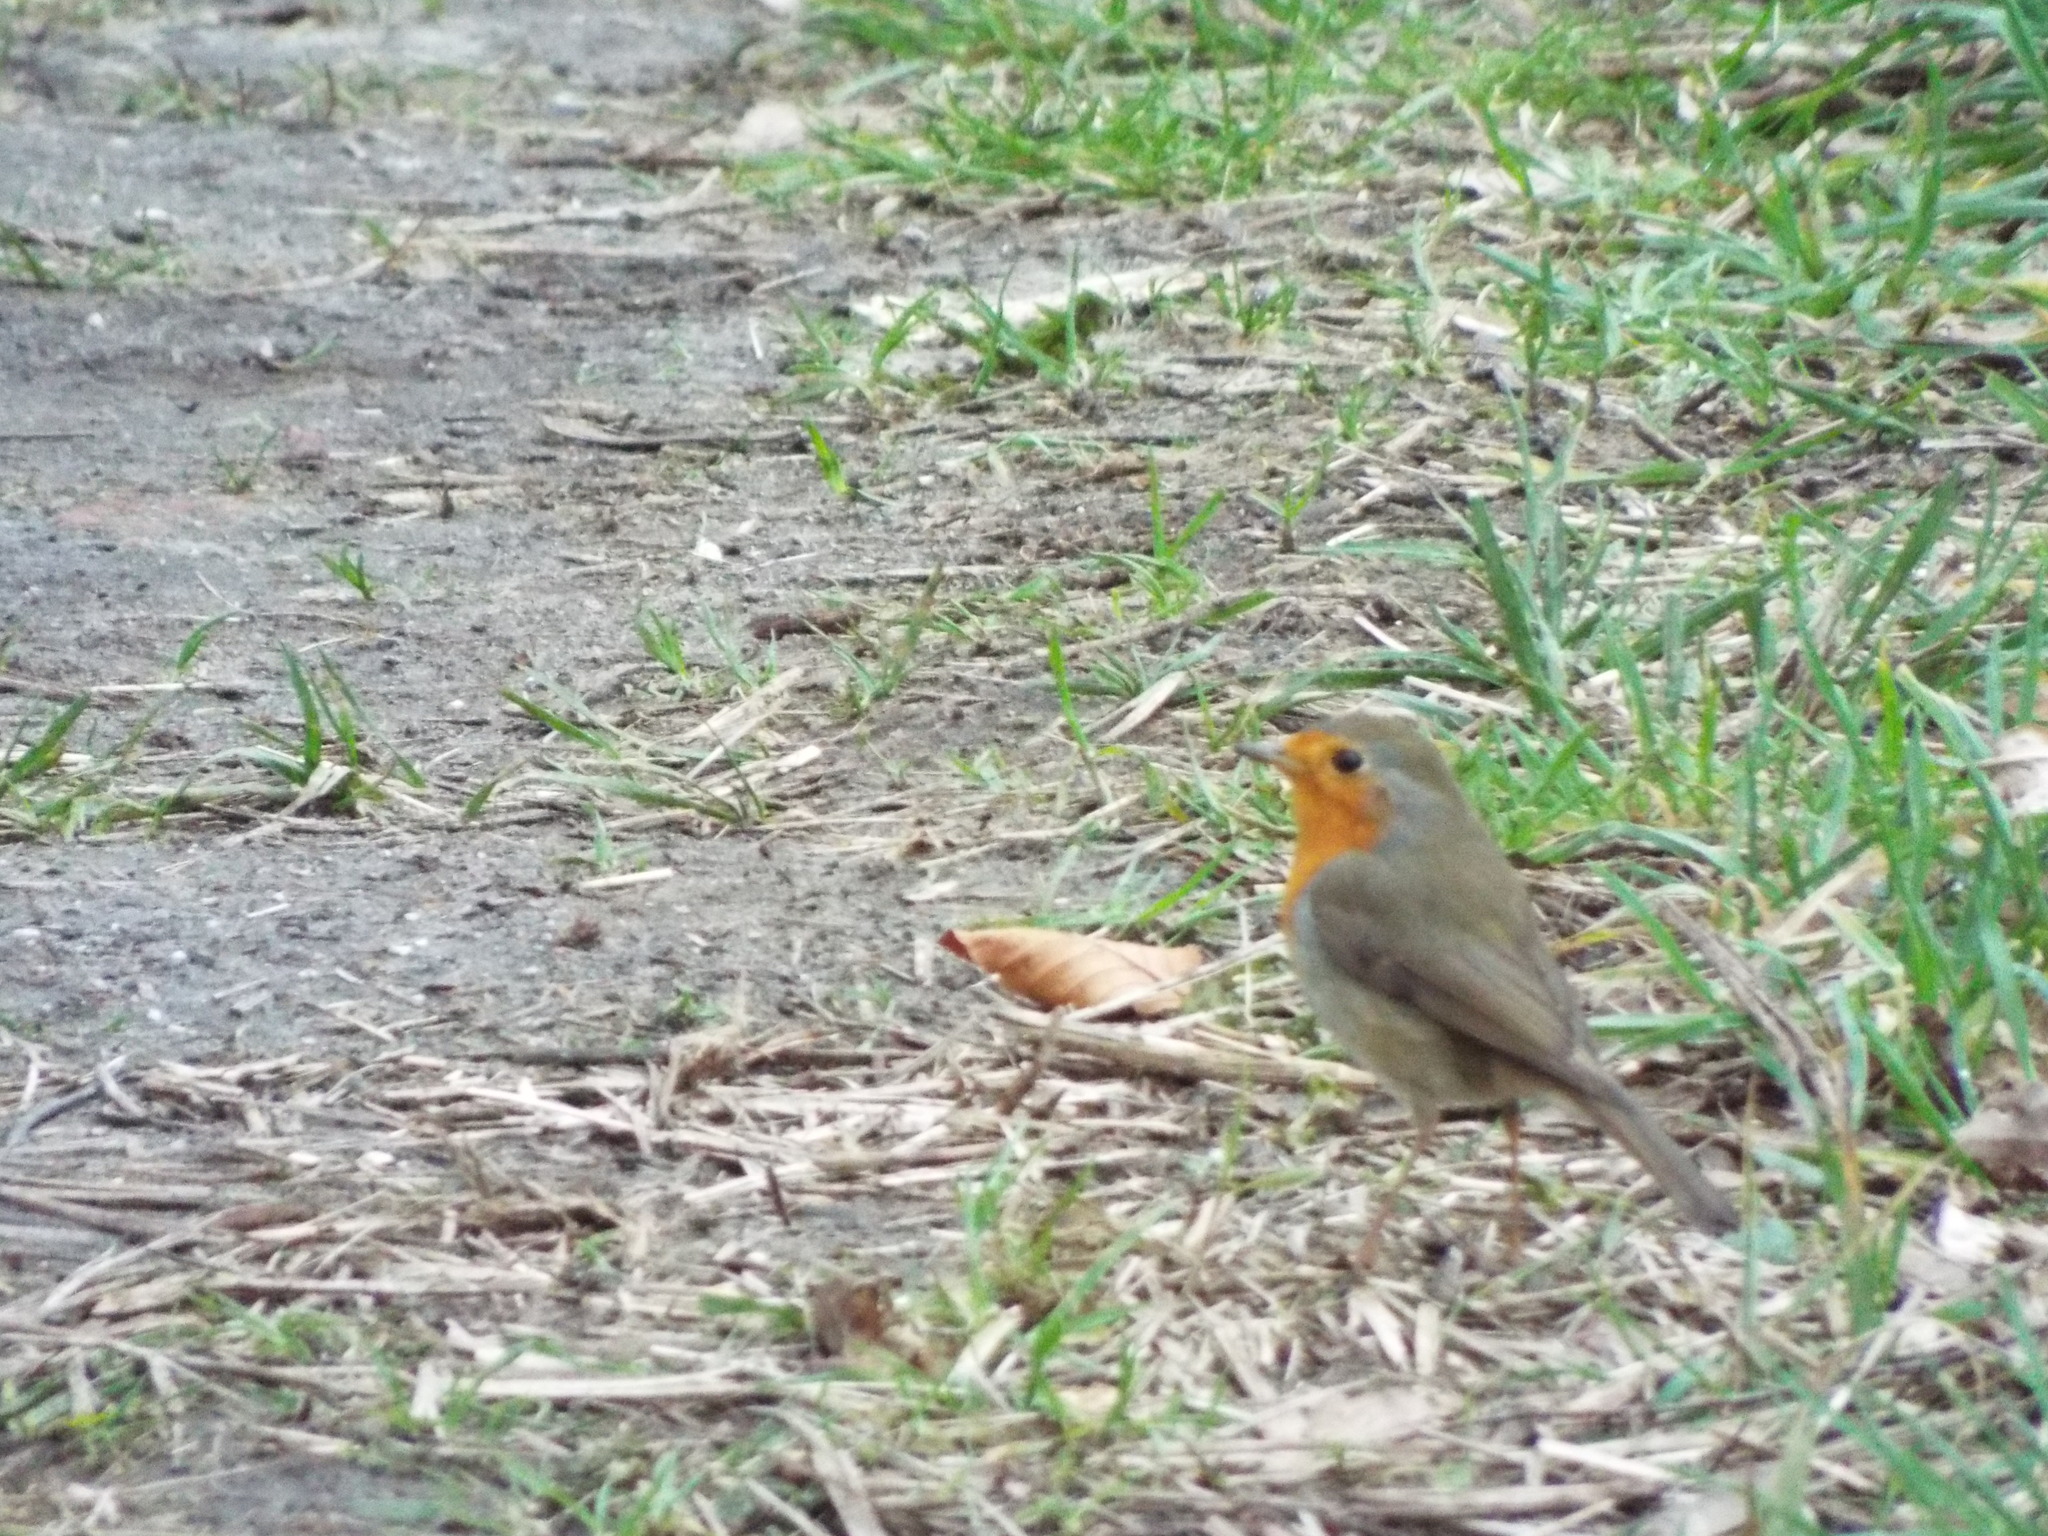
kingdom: Animalia
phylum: Chordata
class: Aves
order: Passeriformes
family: Muscicapidae
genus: Erithacus
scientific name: Erithacus rubecula
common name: European robin
